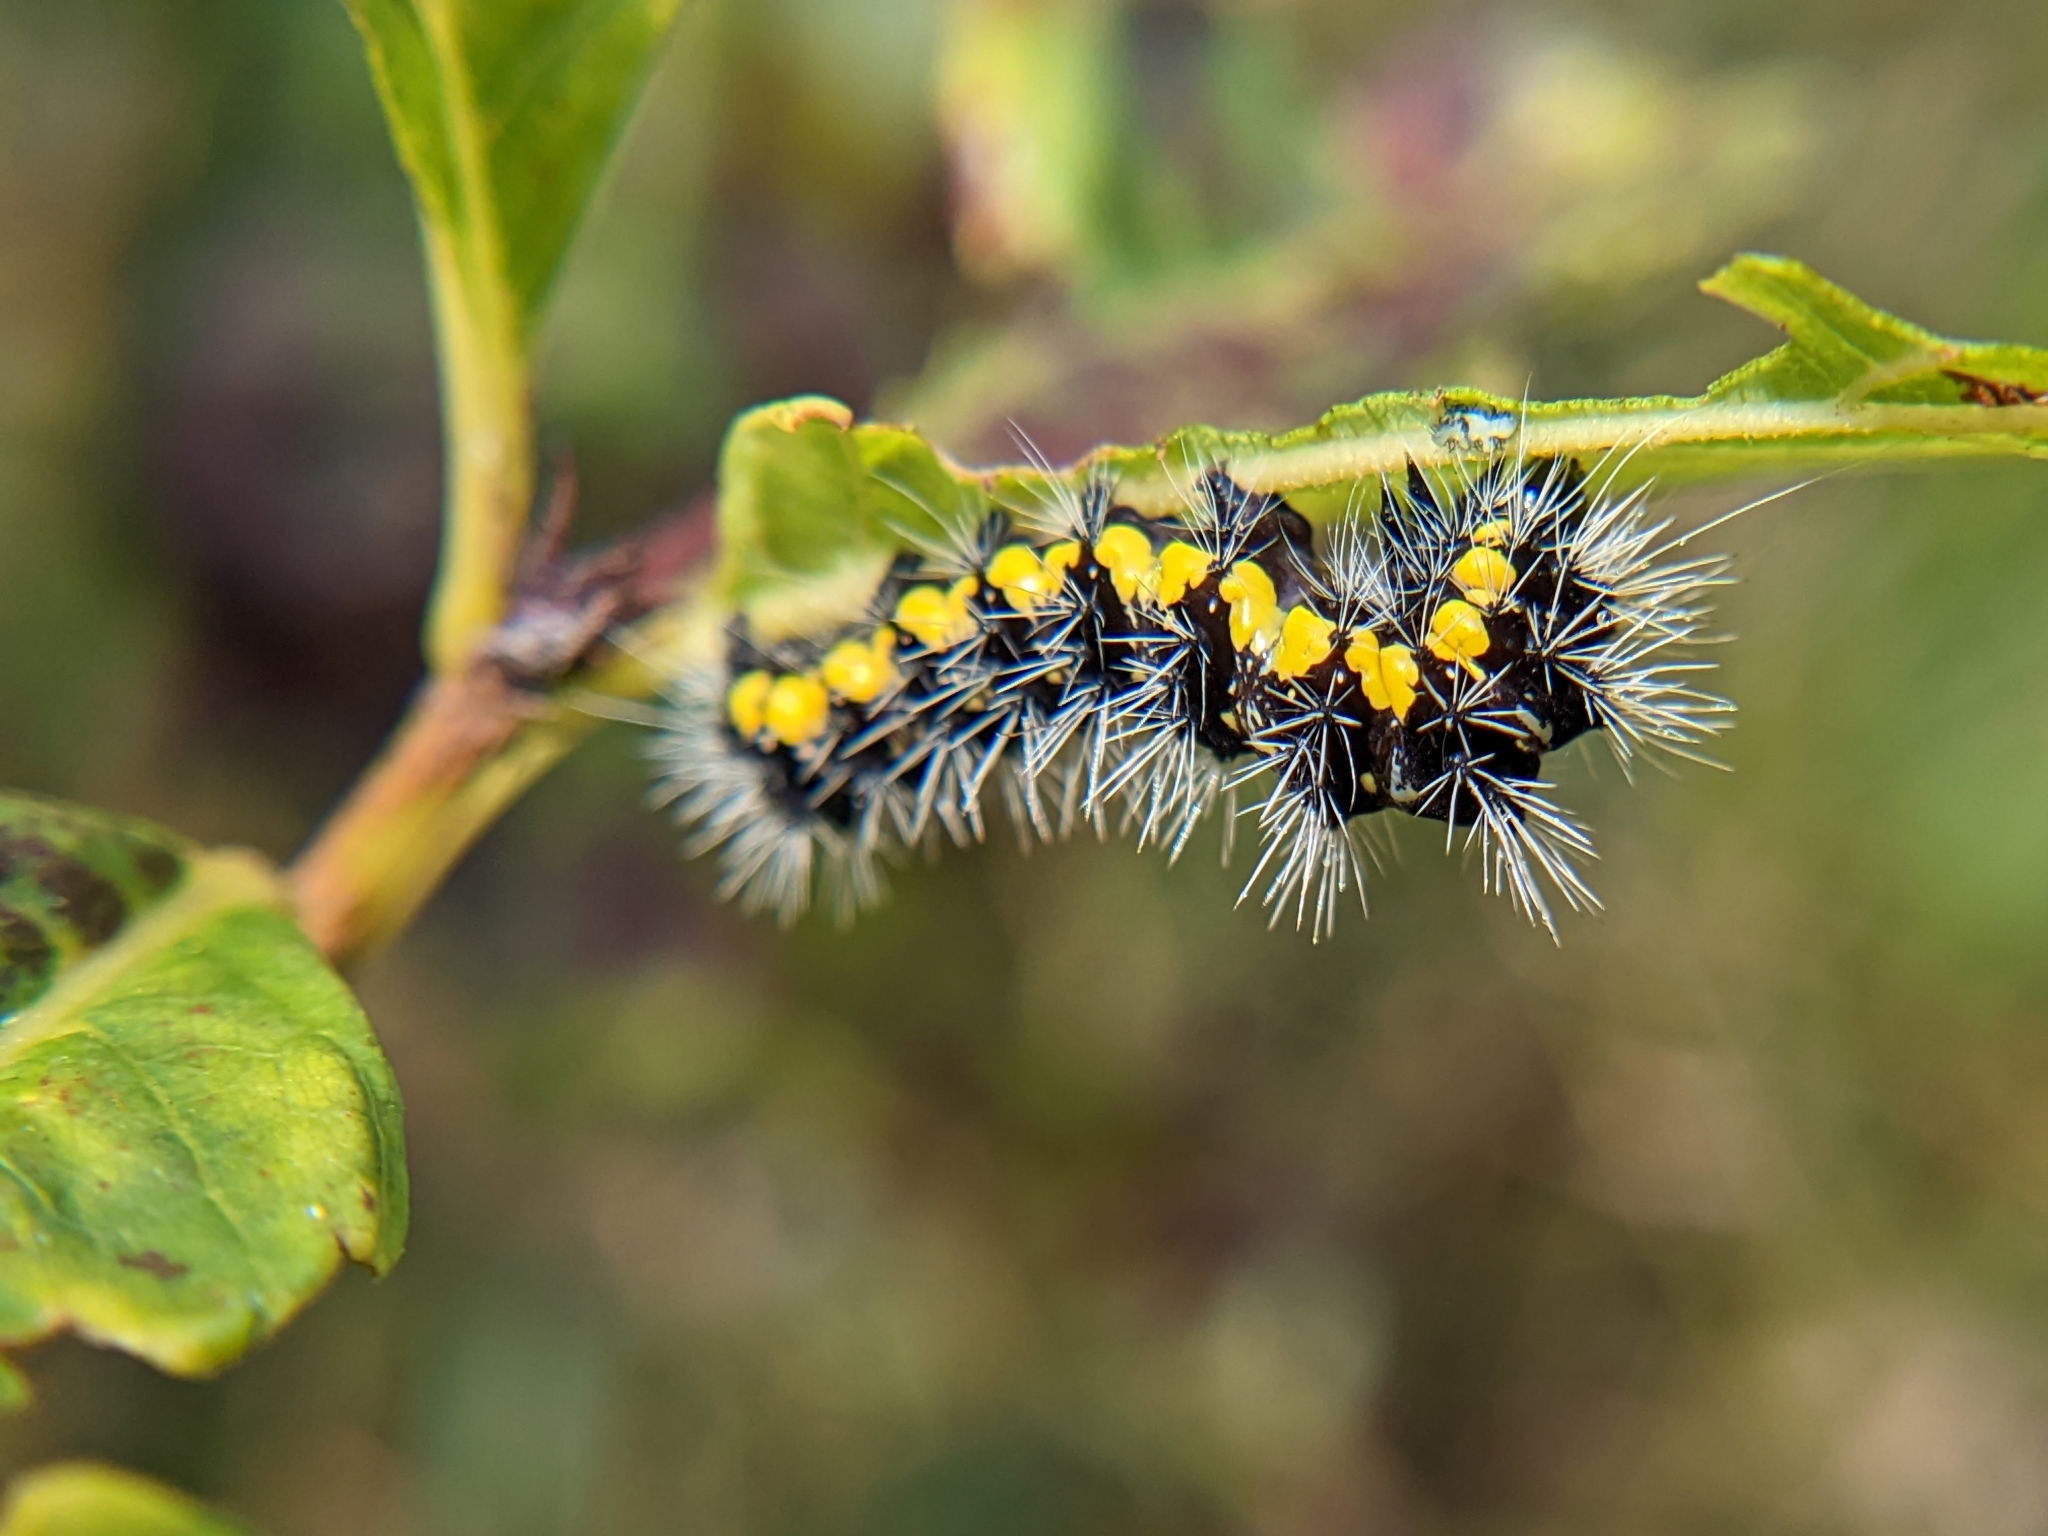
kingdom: Animalia
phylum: Arthropoda
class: Insecta
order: Lepidoptera
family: Noctuidae
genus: Acronicta
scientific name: Acronicta oblinita
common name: Smeared dagger
